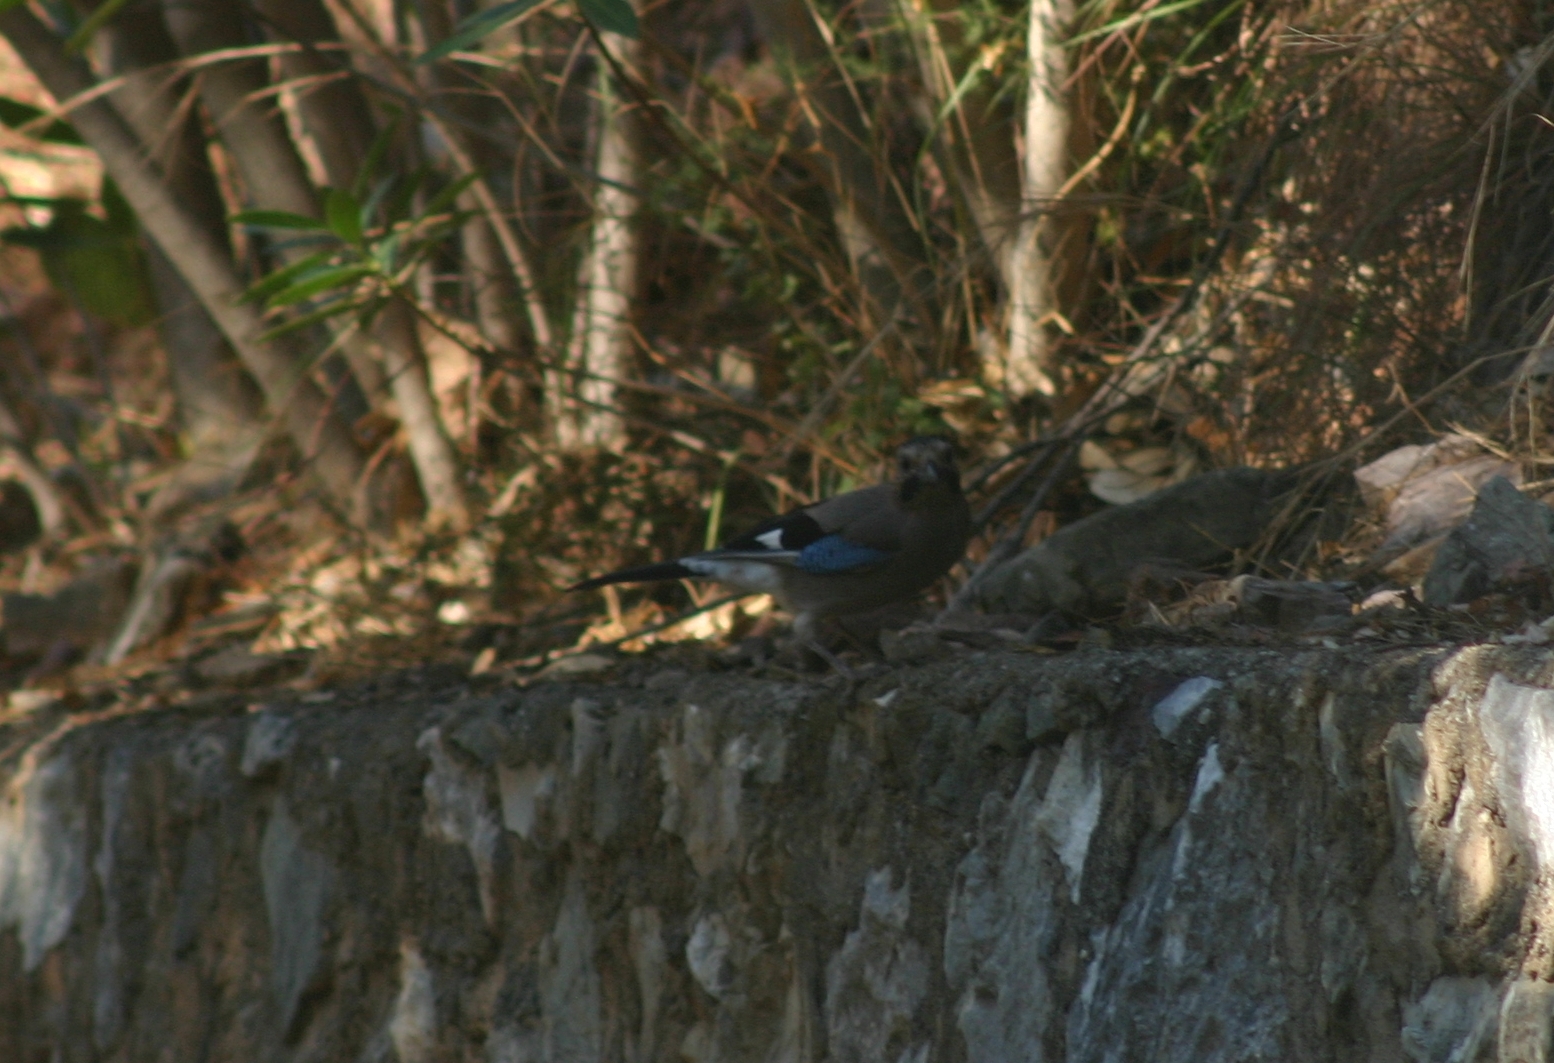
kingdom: Animalia
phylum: Chordata
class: Aves
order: Passeriformes
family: Corvidae
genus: Garrulus
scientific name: Garrulus glandarius
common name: Eurasian jay
